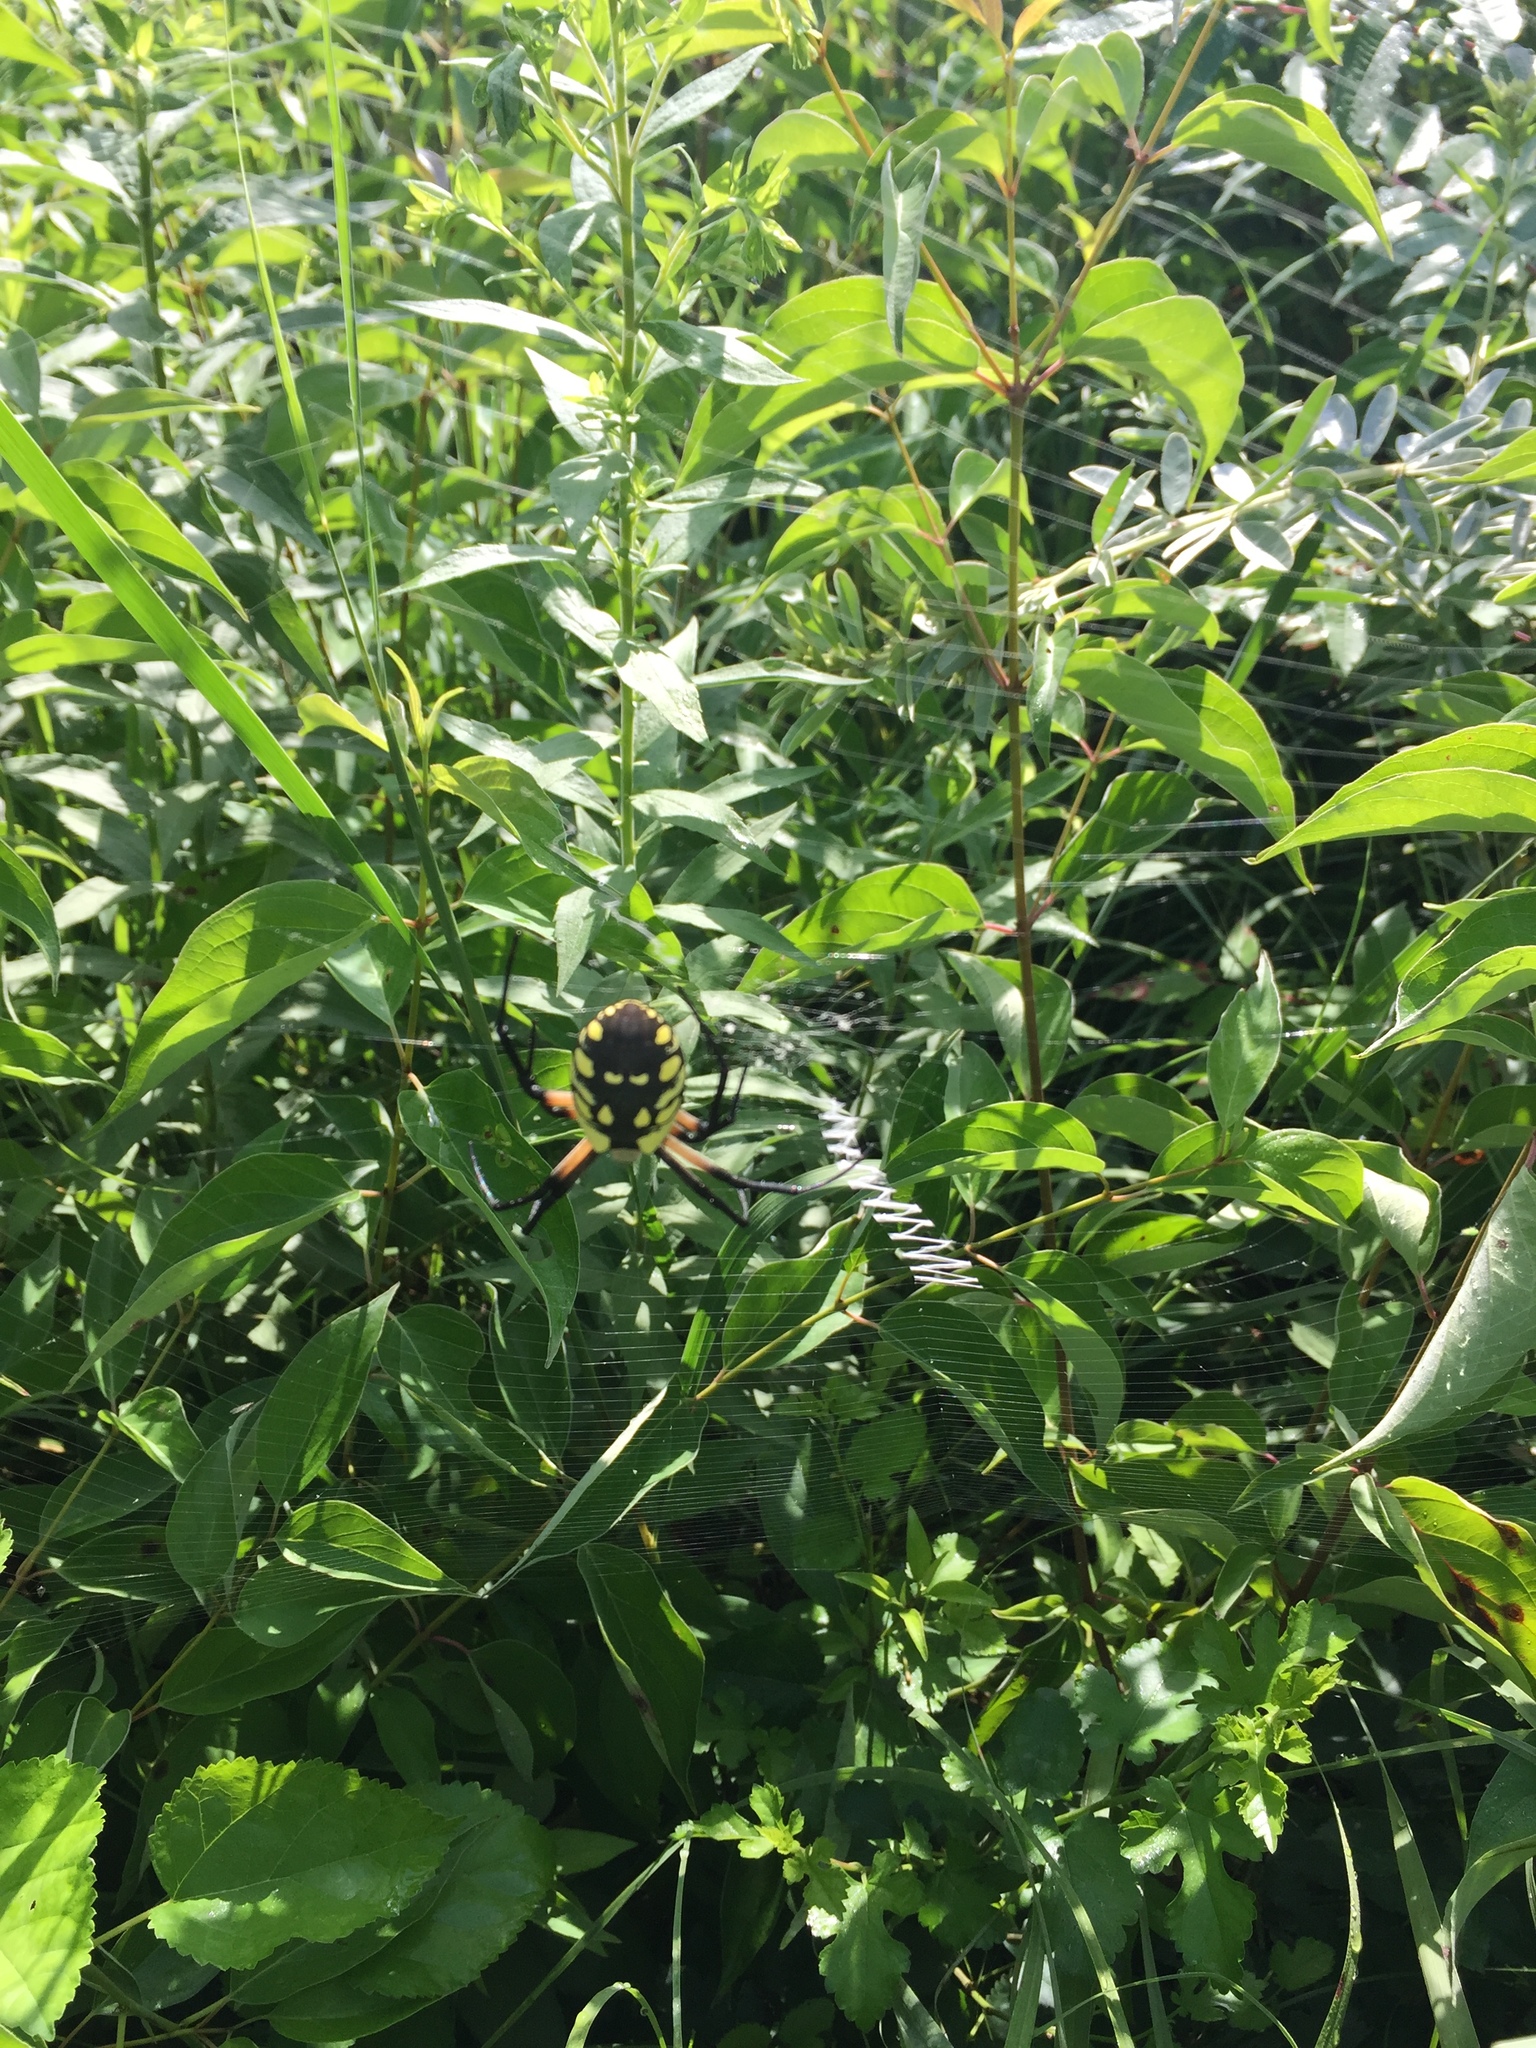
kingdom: Animalia
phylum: Arthropoda
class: Arachnida
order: Araneae
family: Araneidae
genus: Argiope
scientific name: Argiope aurantia
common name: Orb weavers
